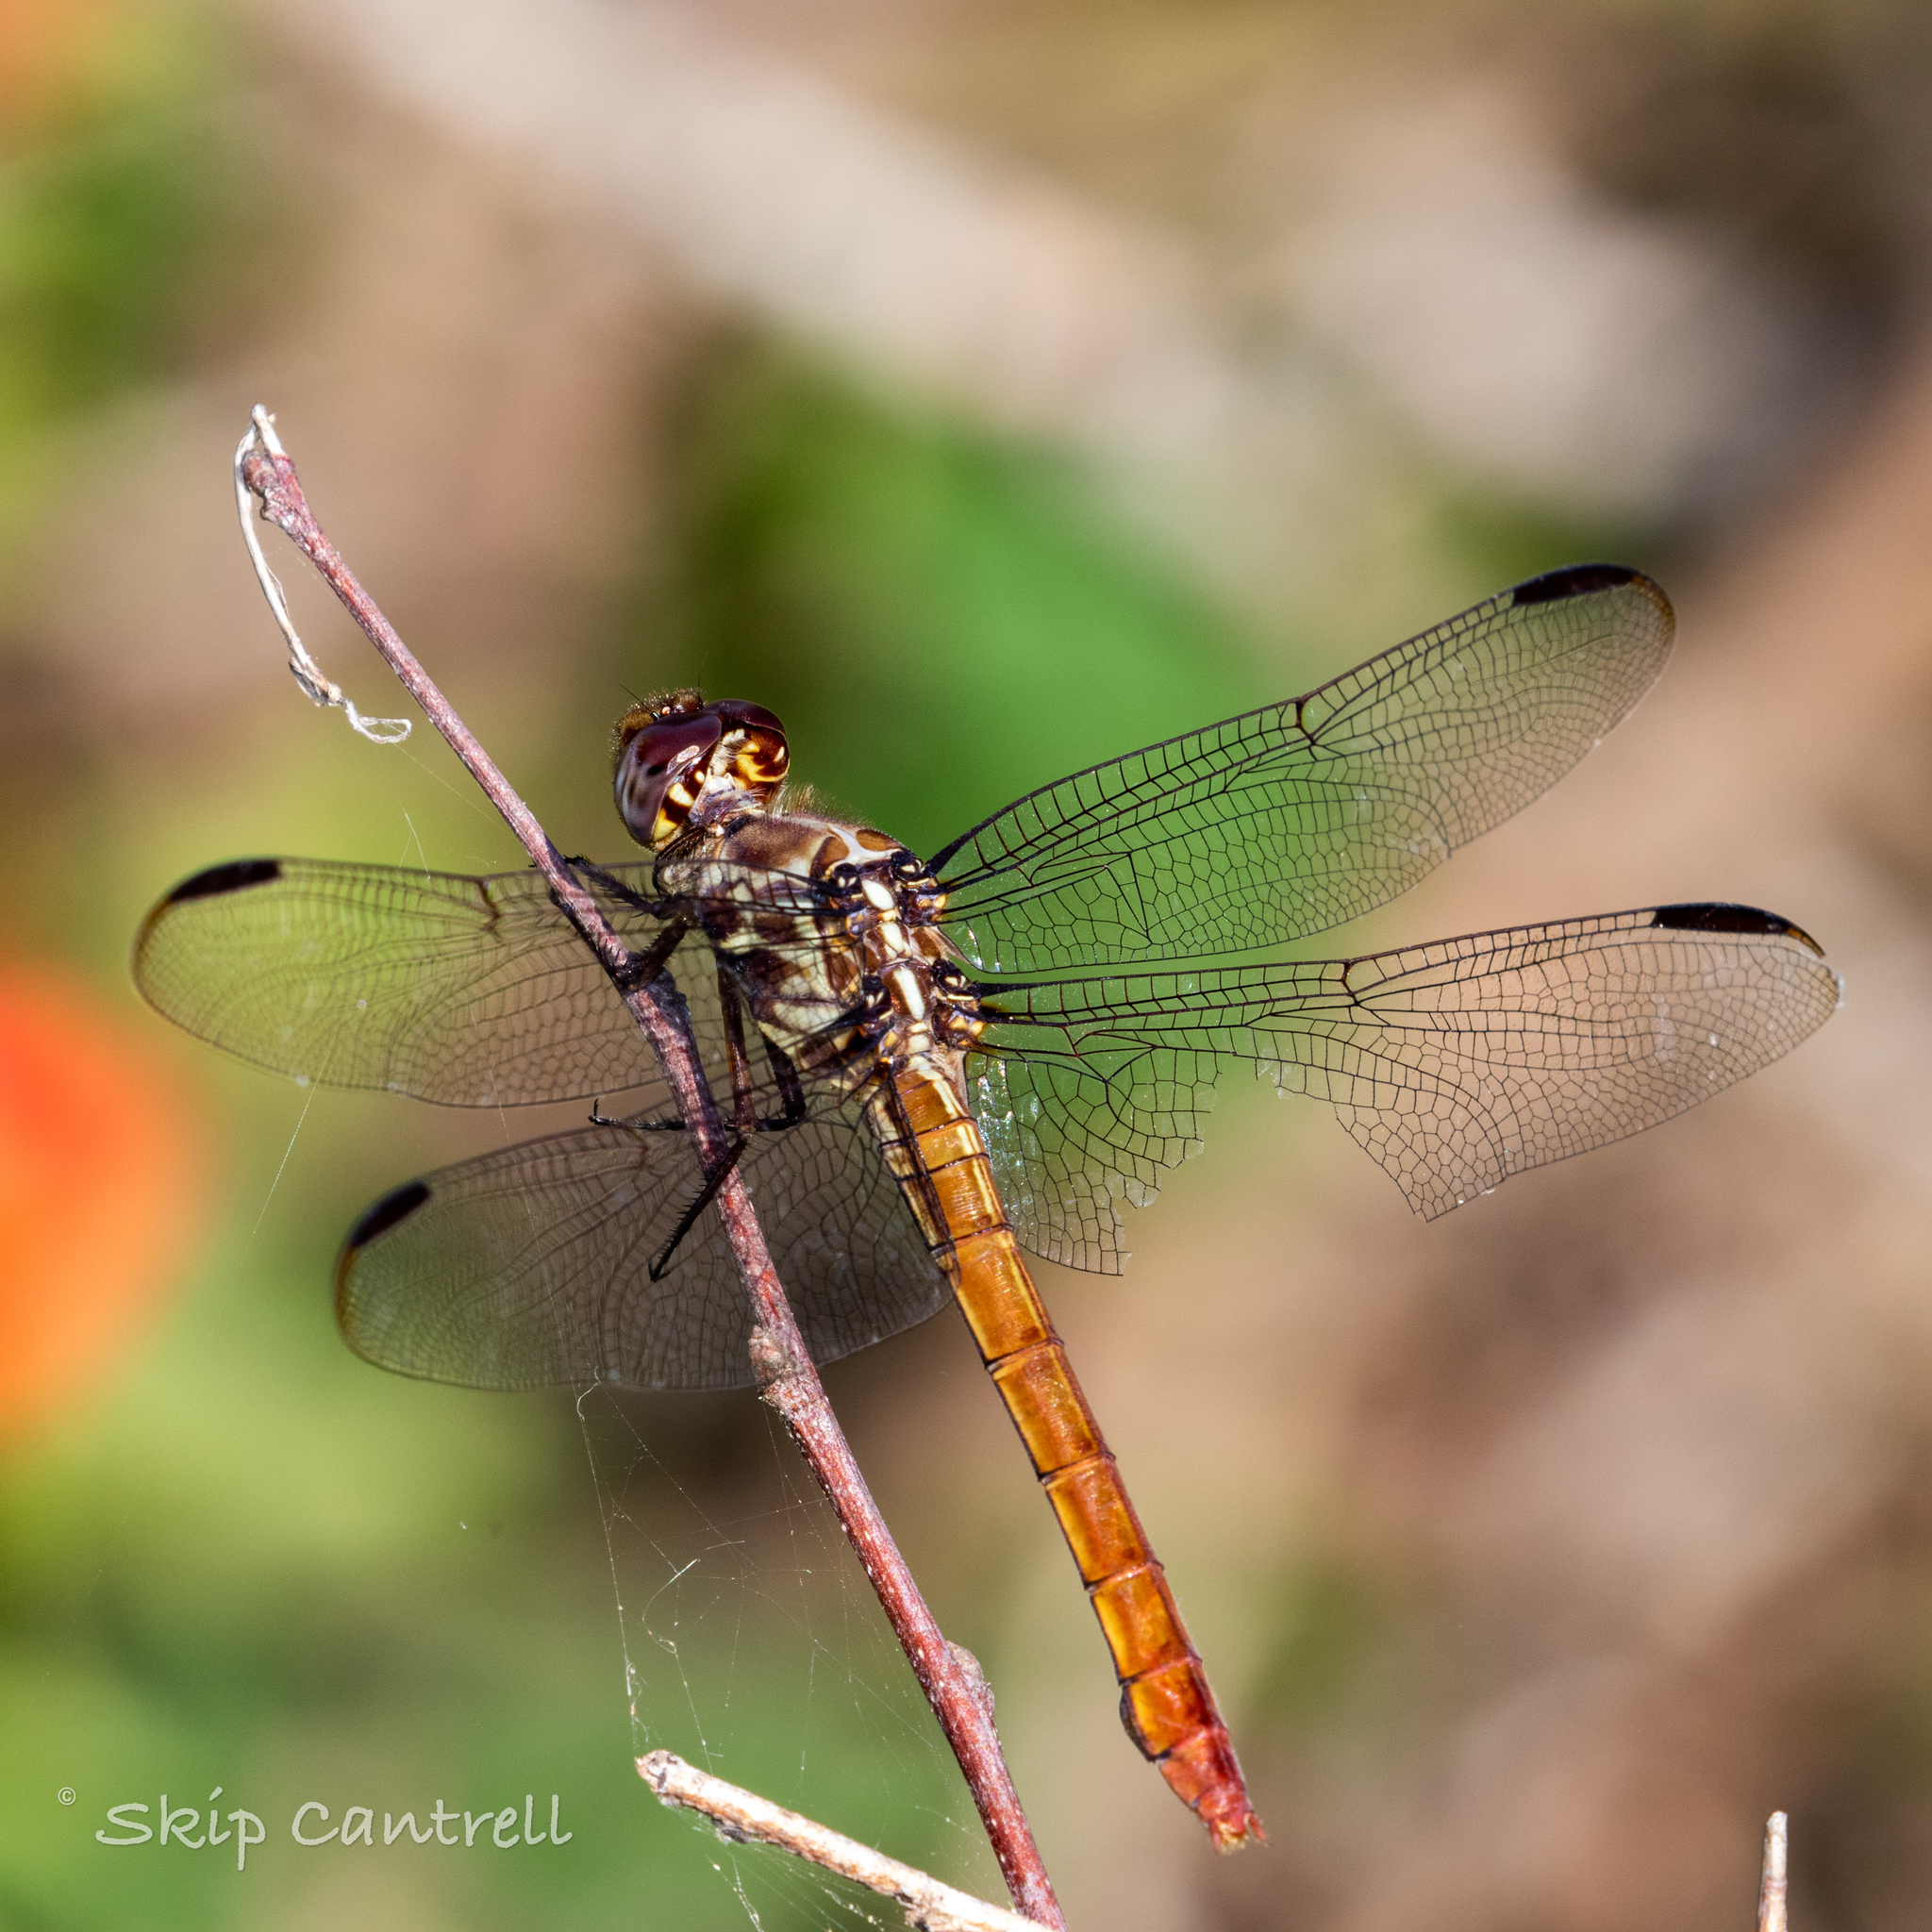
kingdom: Animalia
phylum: Arthropoda
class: Insecta
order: Odonata
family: Libellulidae
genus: Orthemis
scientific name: Orthemis ferruginea
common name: Roseate skimmer
